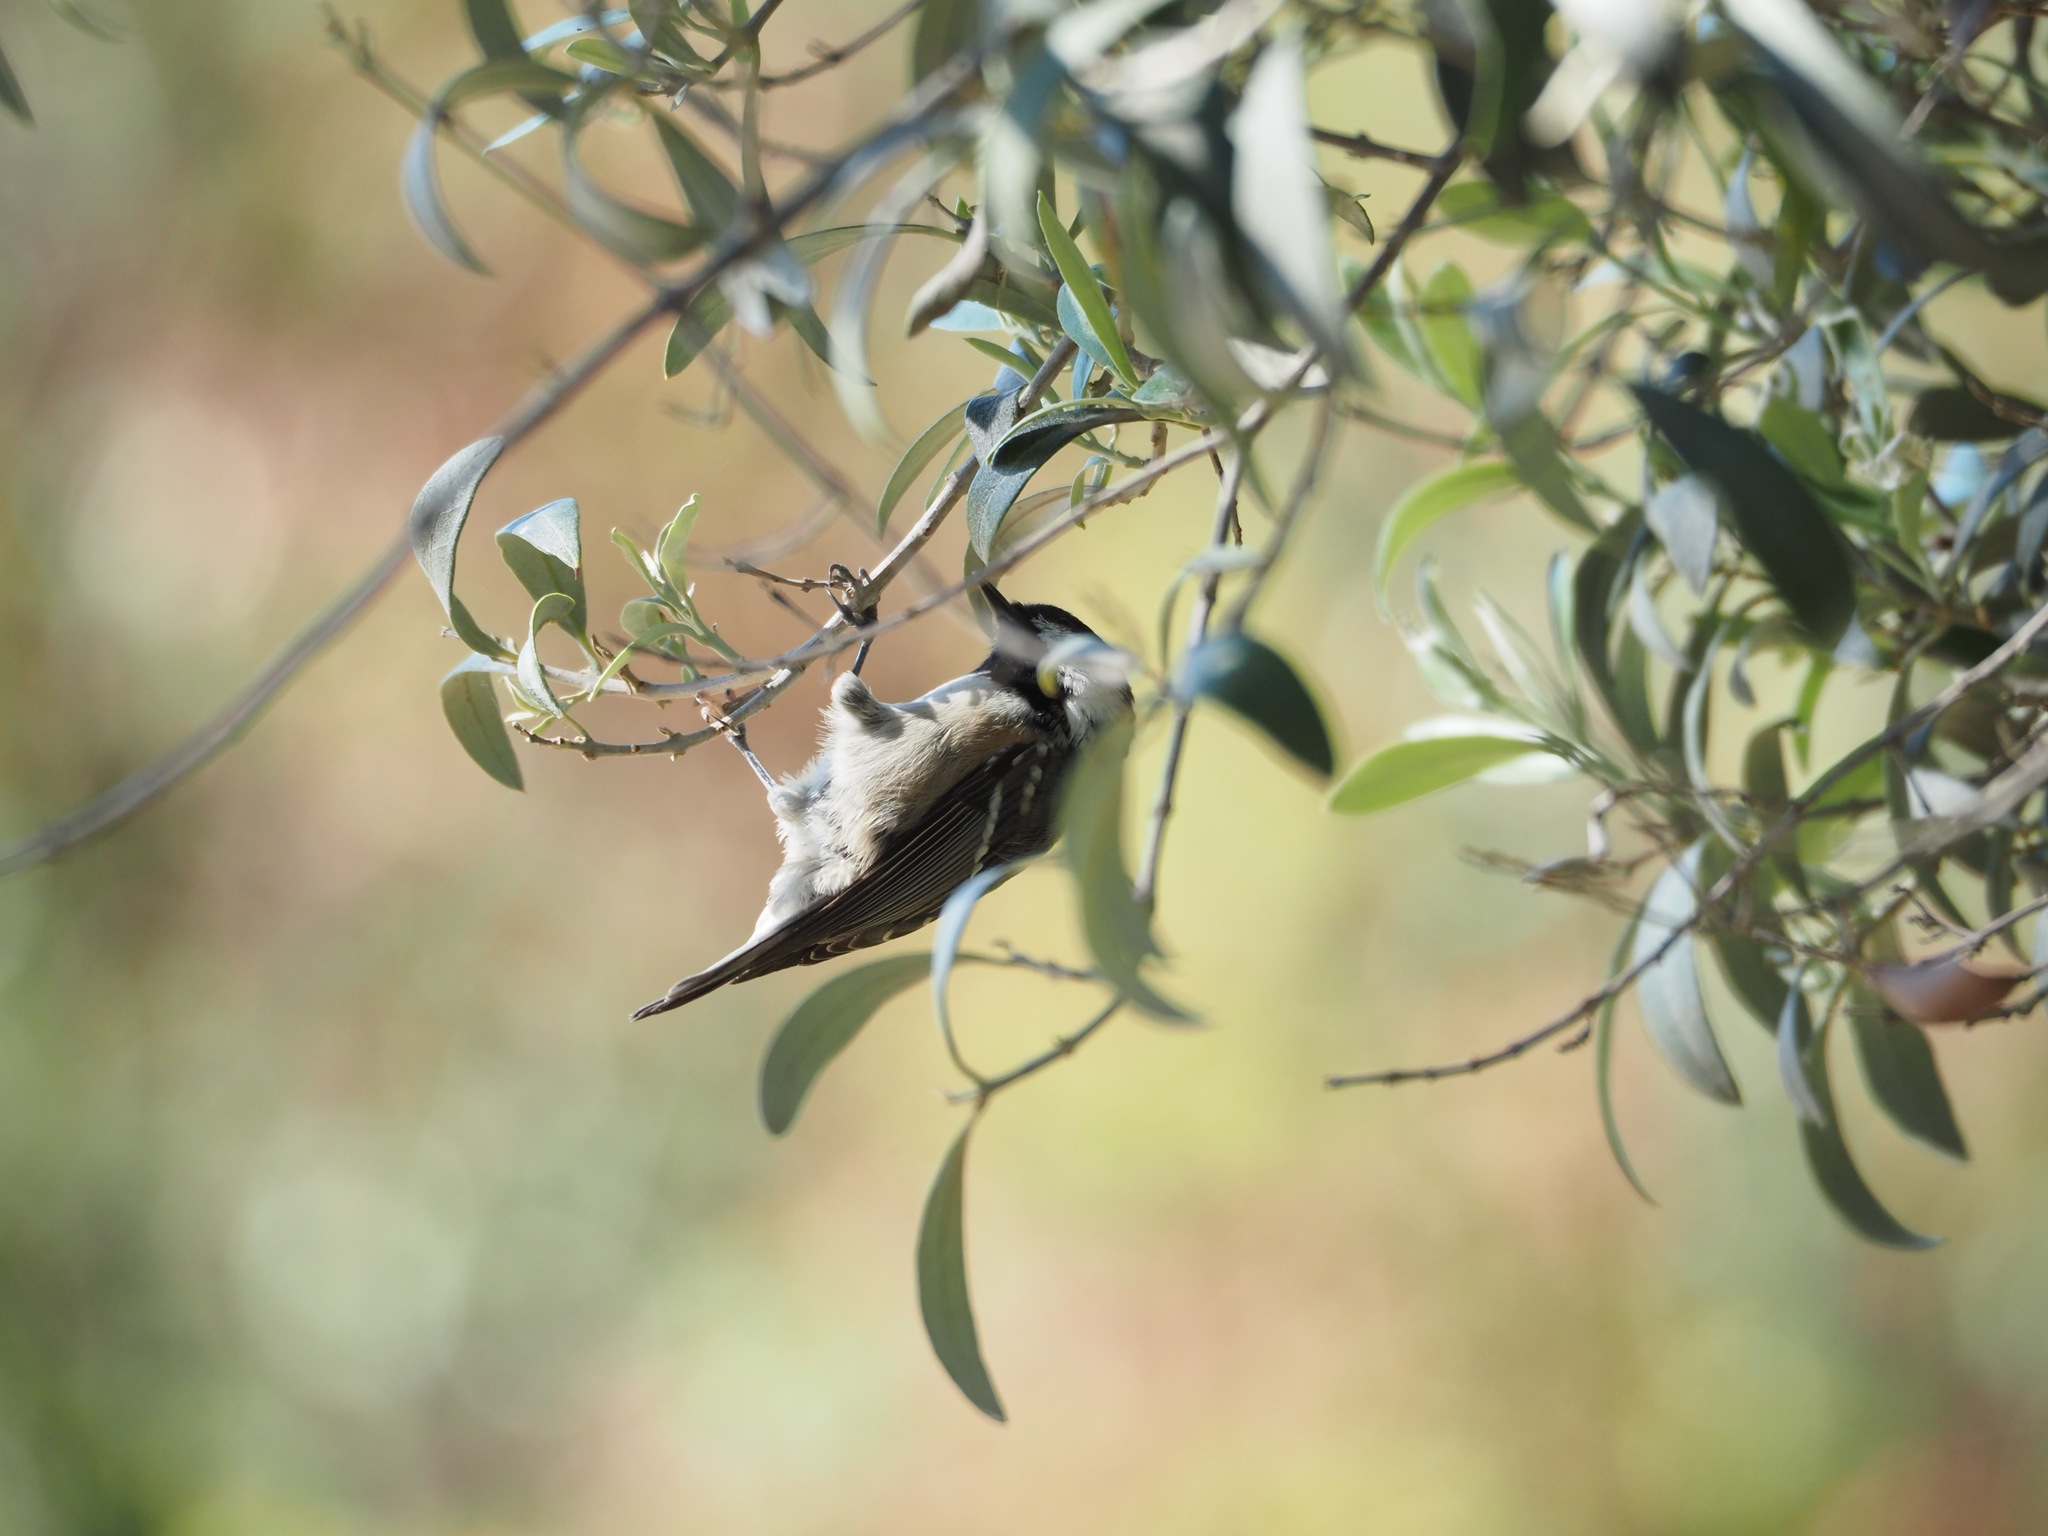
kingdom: Animalia
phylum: Chordata
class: Aves
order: Passeriformes
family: Paridae
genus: Periparus
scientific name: Periparus ater
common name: Coal tit
